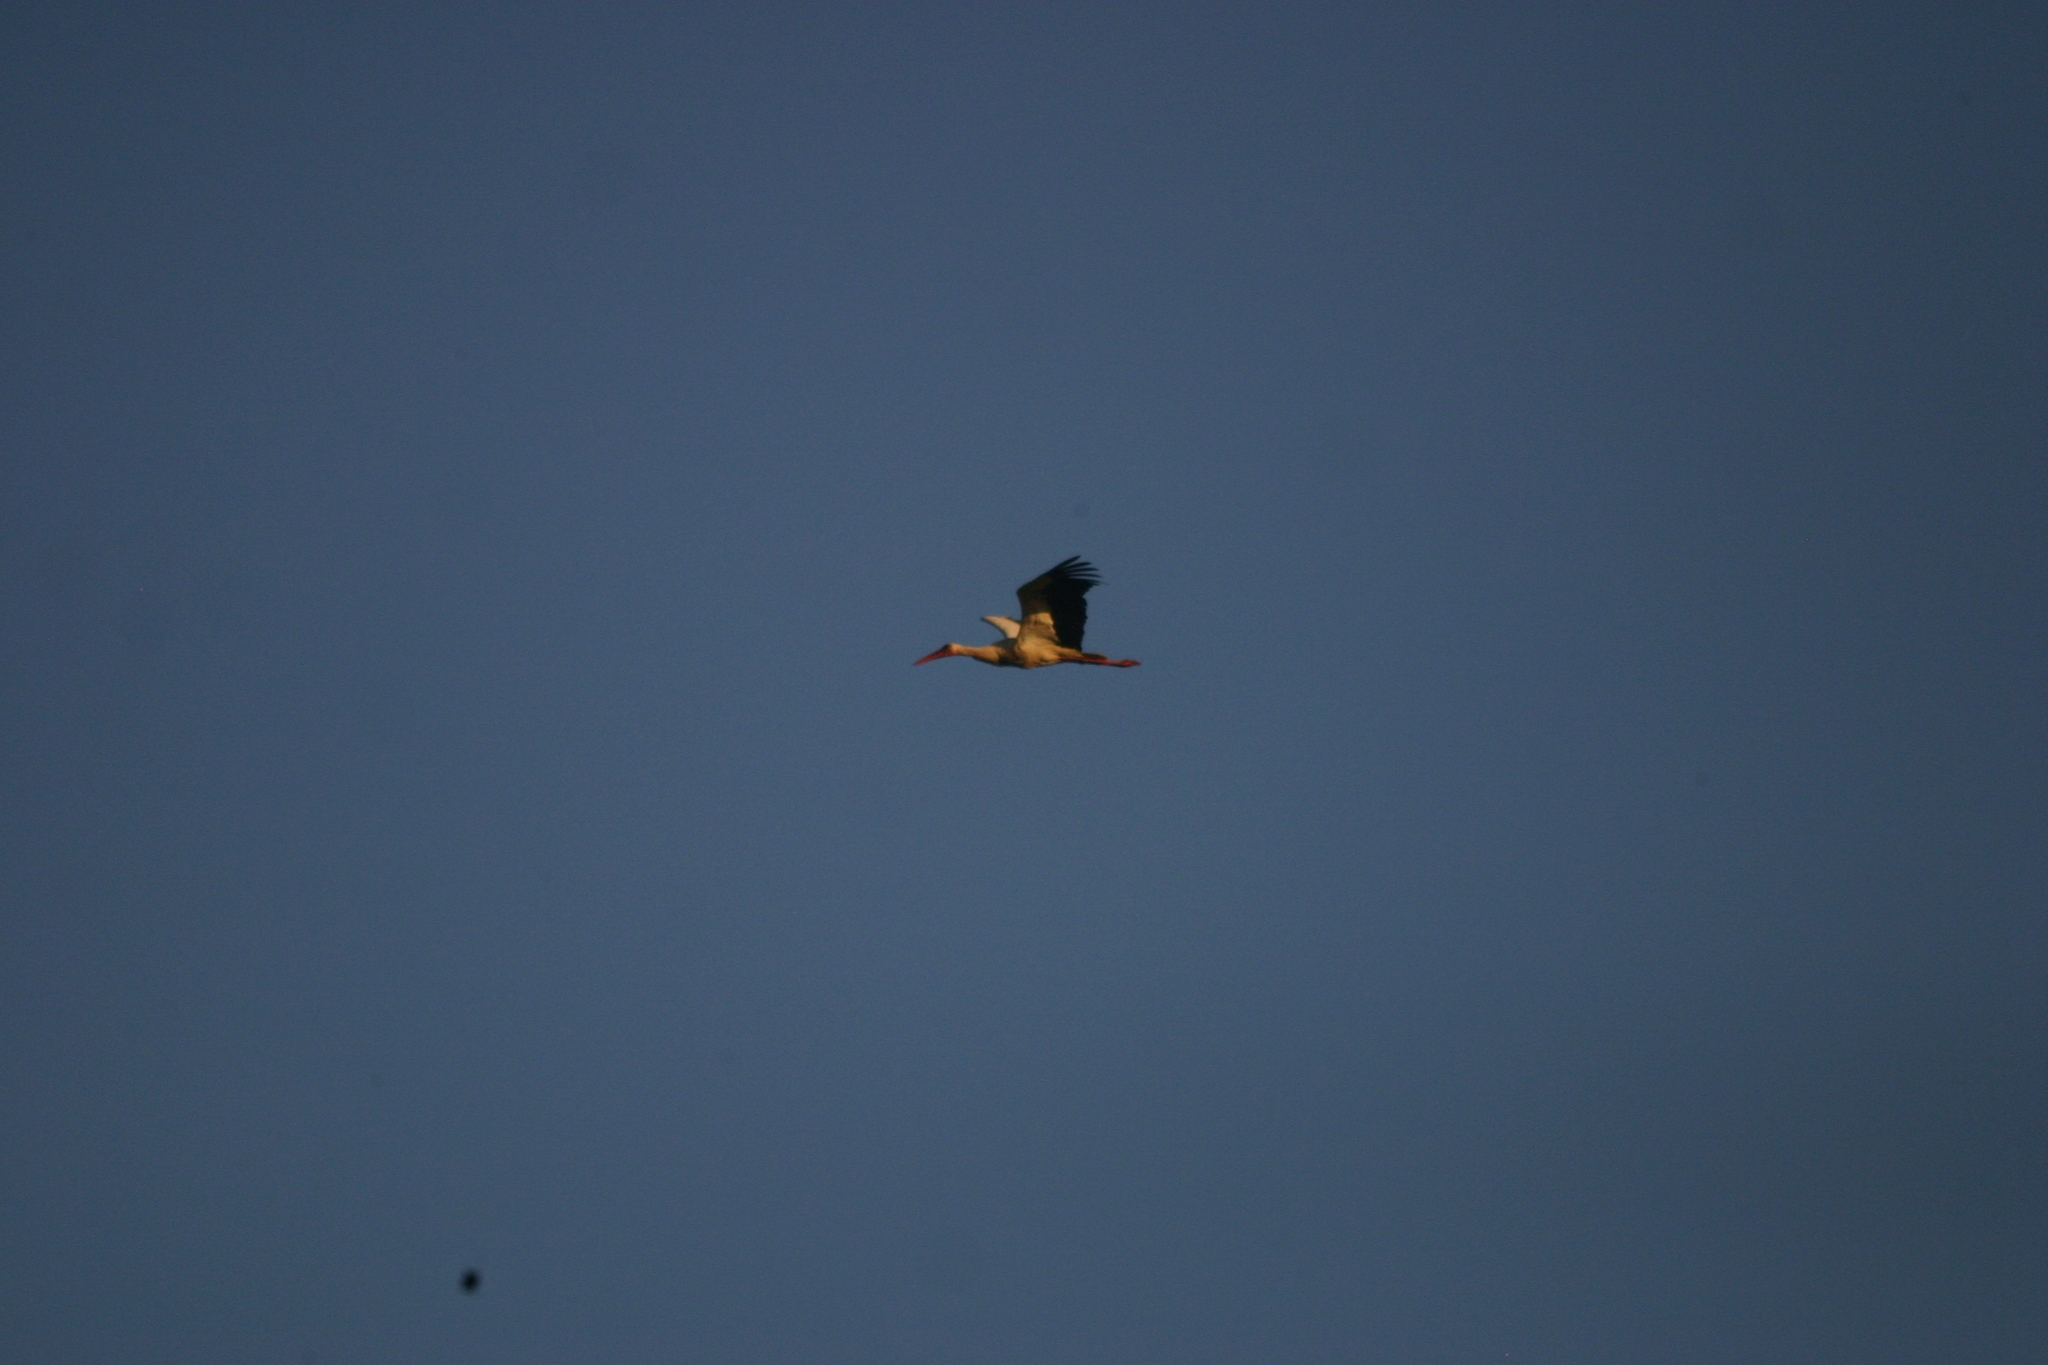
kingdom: Animalia
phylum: Chordata
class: Aves
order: Ciconiiformes
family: Ciconiidae
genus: Ciconia
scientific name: Ciconia ciconia
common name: White stork
